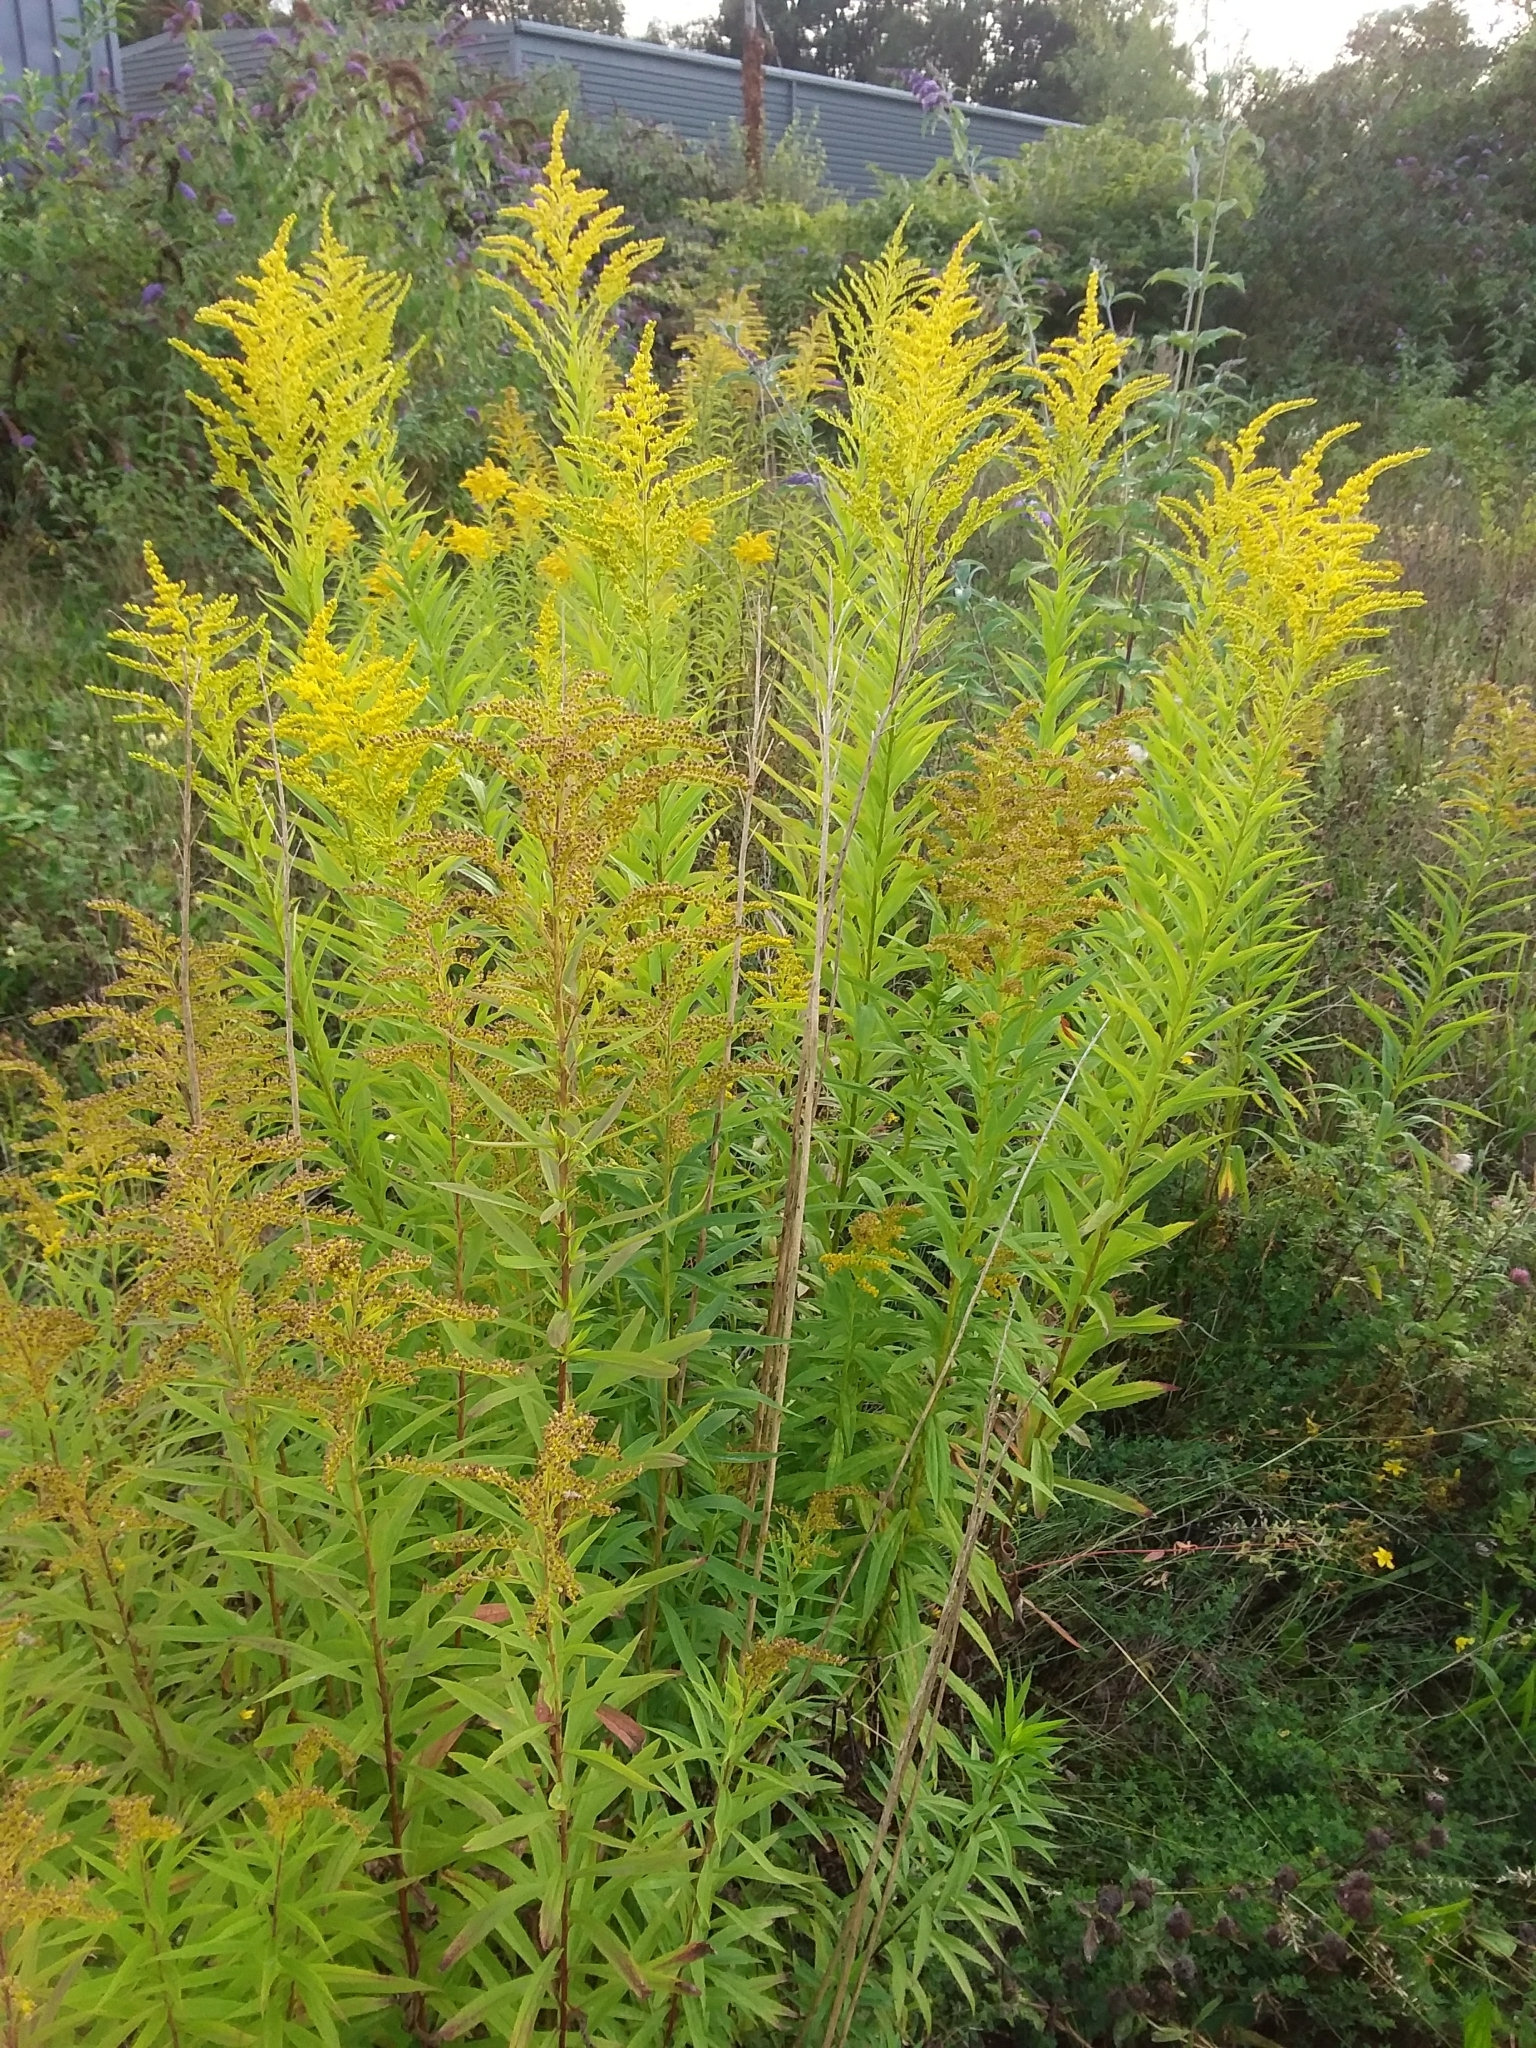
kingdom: Plantae
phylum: Tracheophyta
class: Magnoliopsida
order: Asterales
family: Asteraceae
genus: Solidago
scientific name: Solidago canadensis
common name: Canada goldenrod
